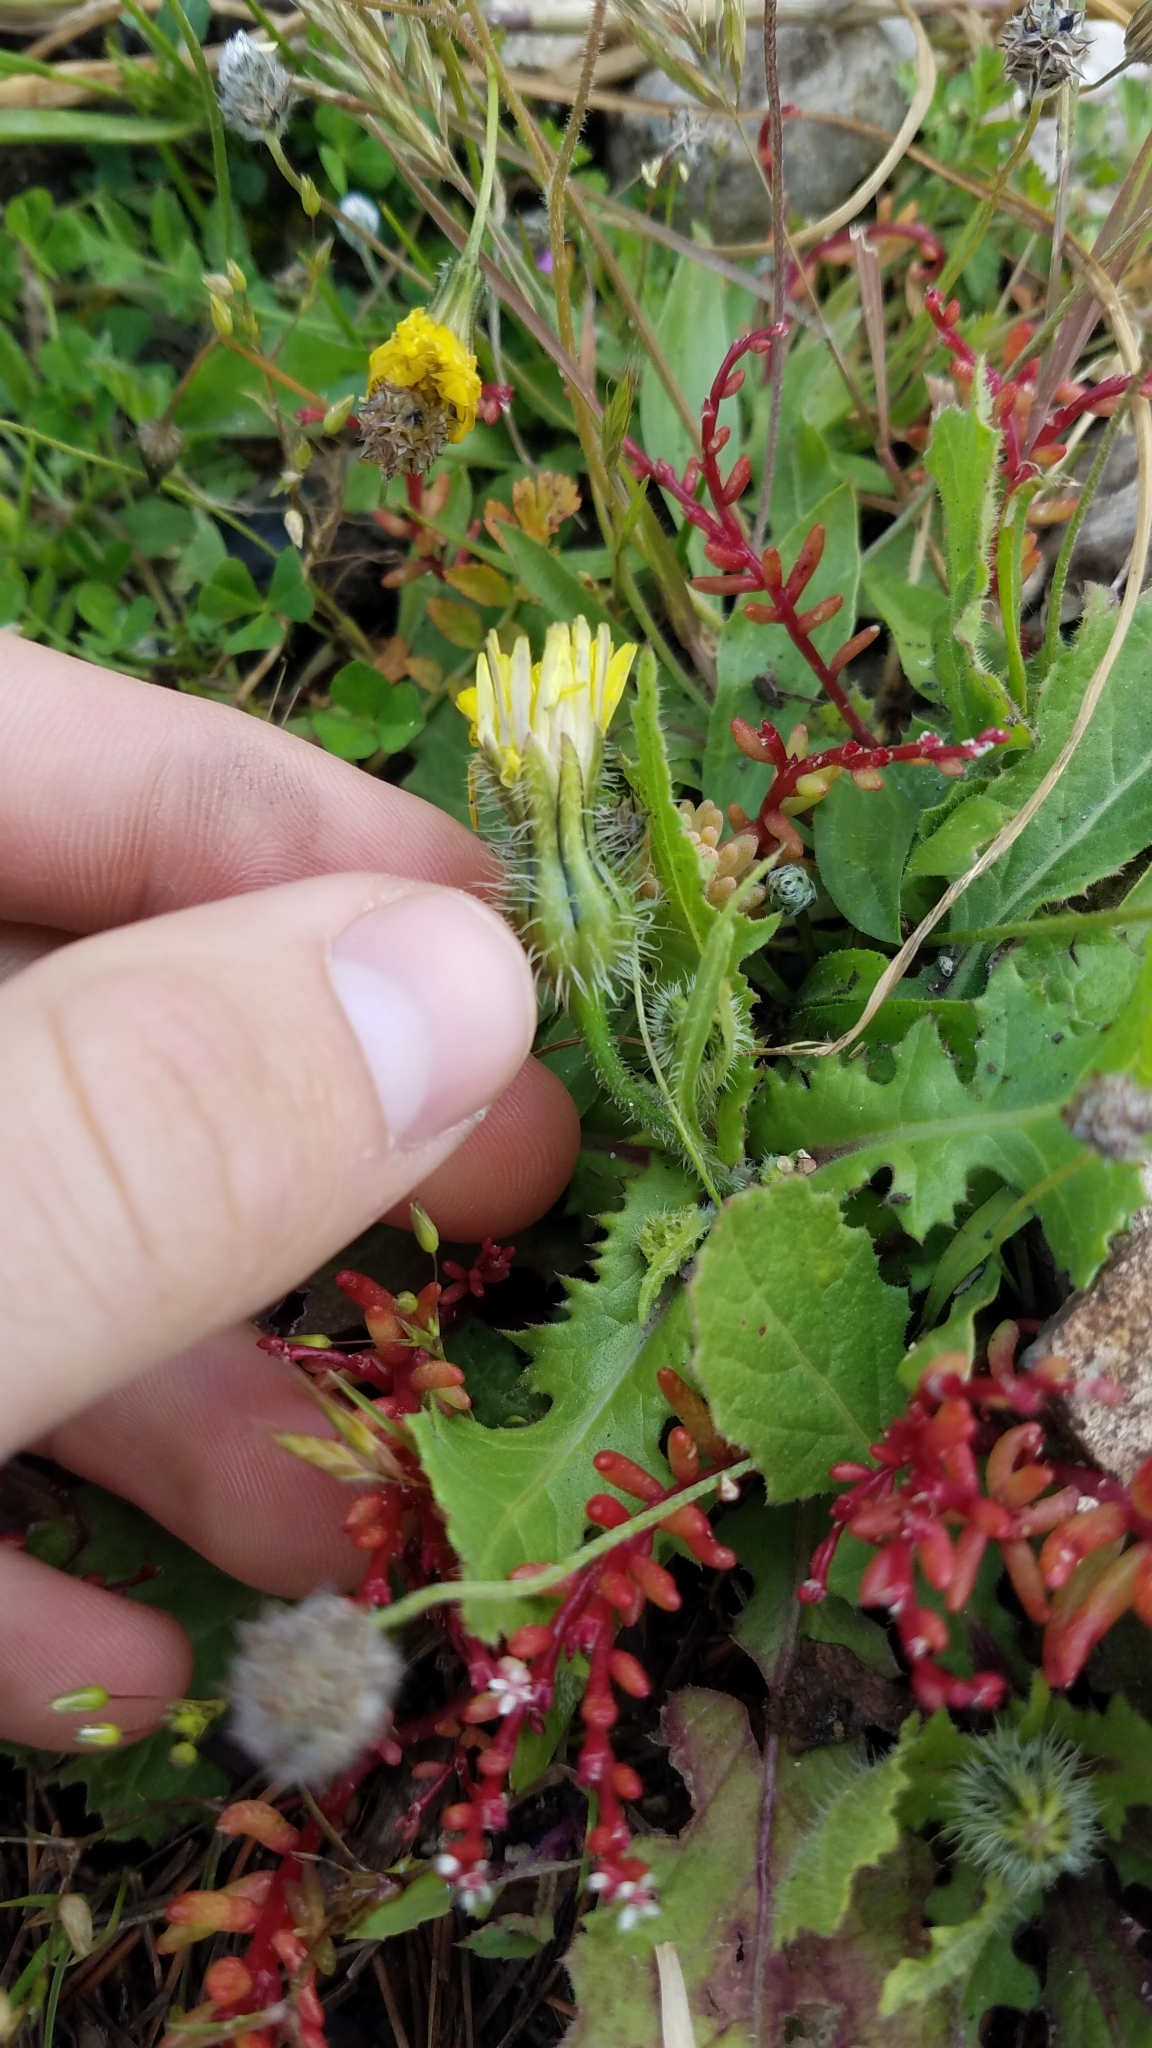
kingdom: Plantae
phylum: Tracheophyta
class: Magnoliopsida
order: Asterales
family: Asteraceae
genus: Urospermum
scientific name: Urospermum picroides
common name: False hawkbit
